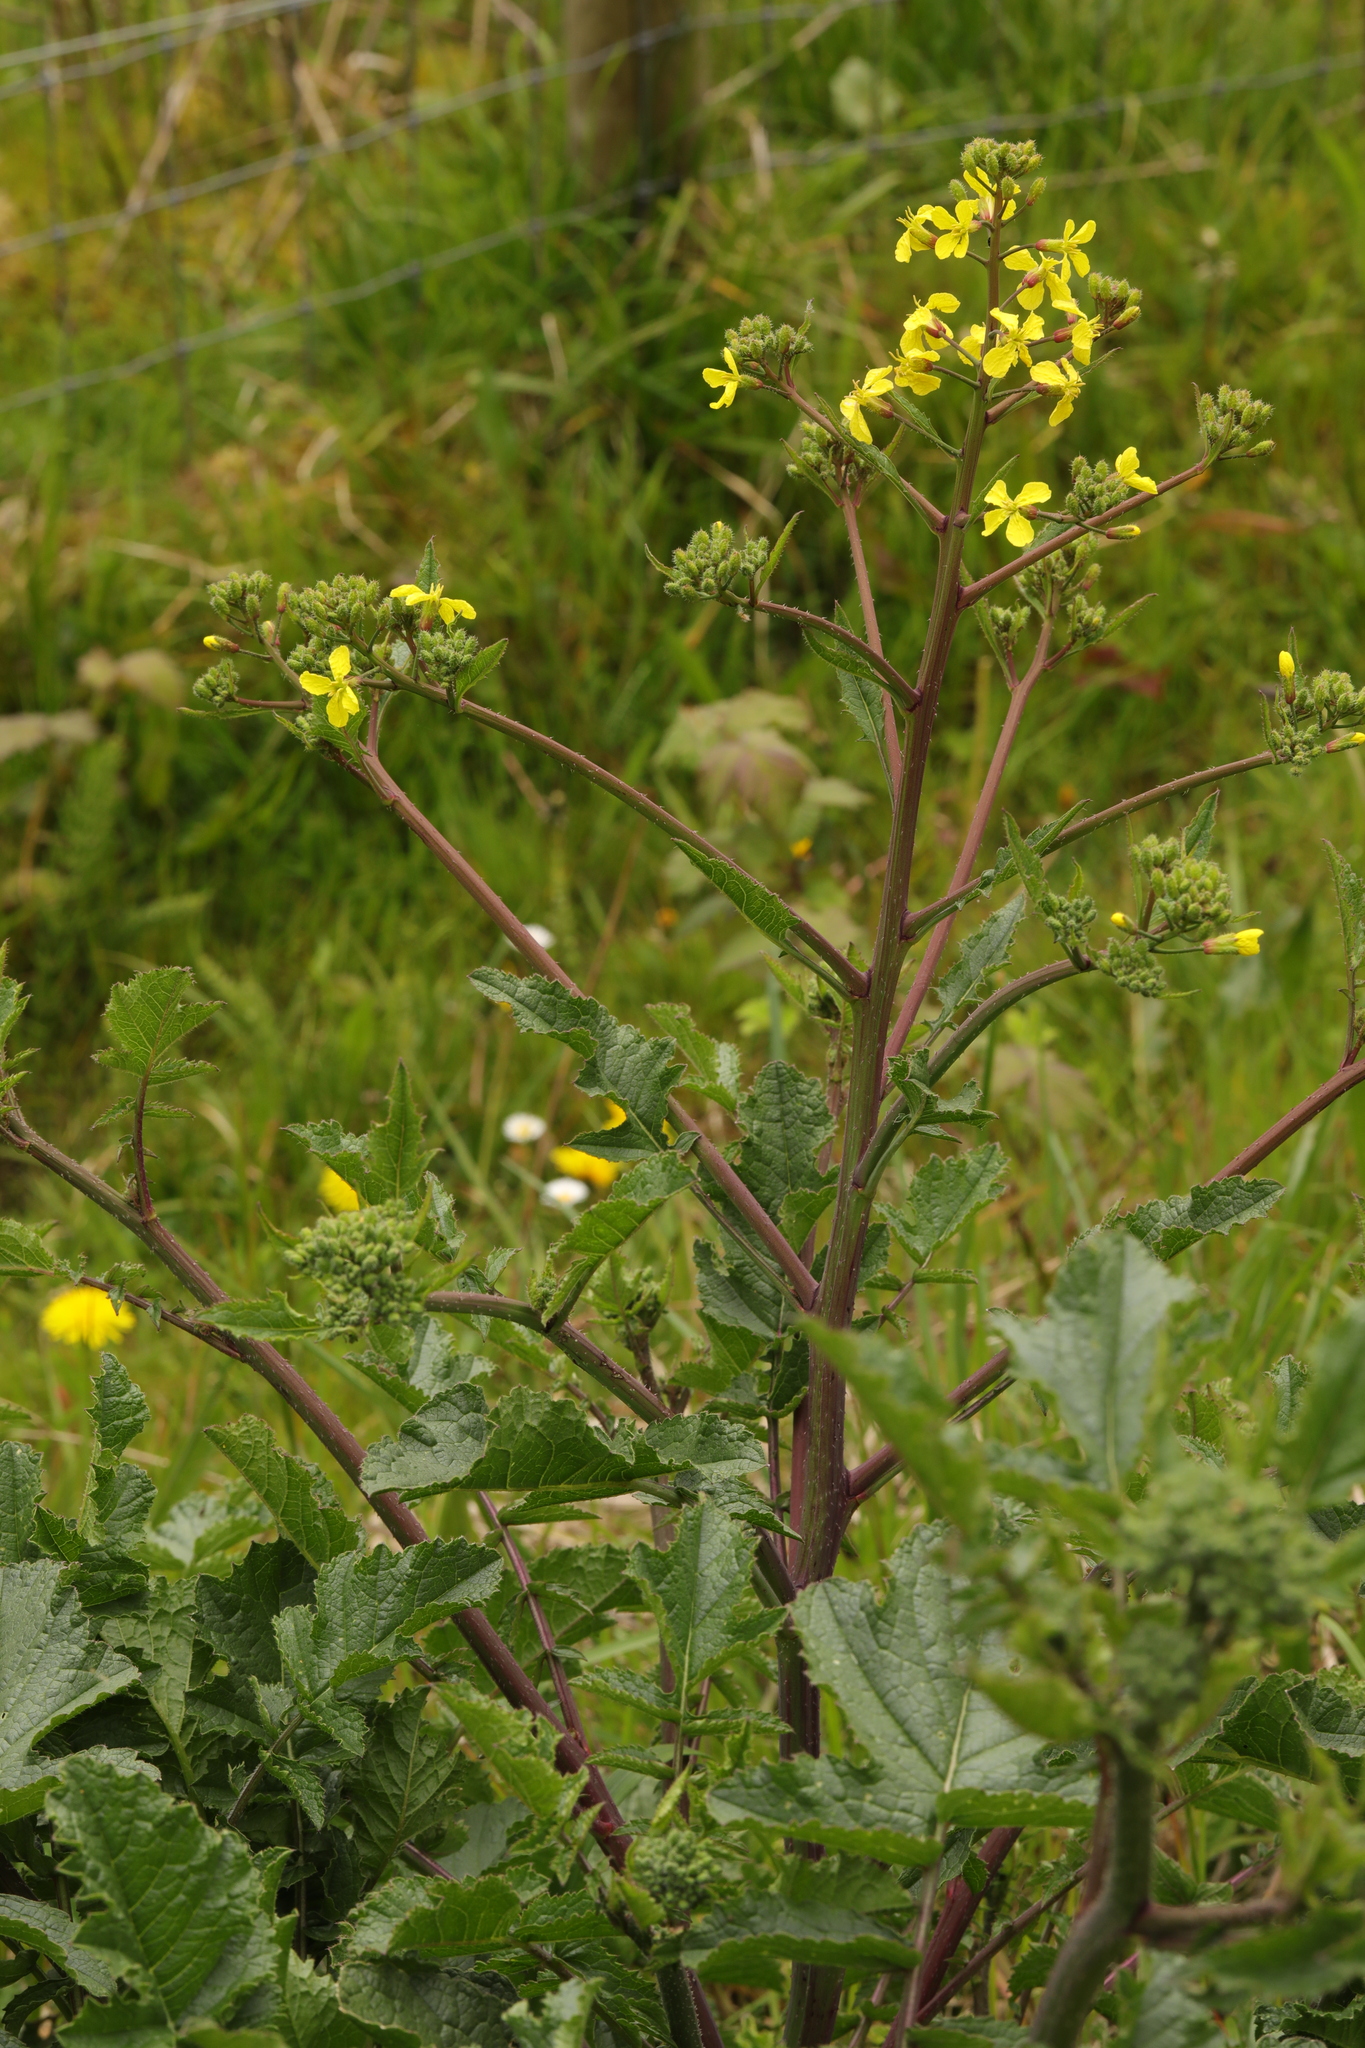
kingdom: Plantae
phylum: Tracheophyta
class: Magnoliopsida
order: Brassicales
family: Brassicaceae
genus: Raphanus
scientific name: Raphanus raphanistrum
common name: Wild radish
